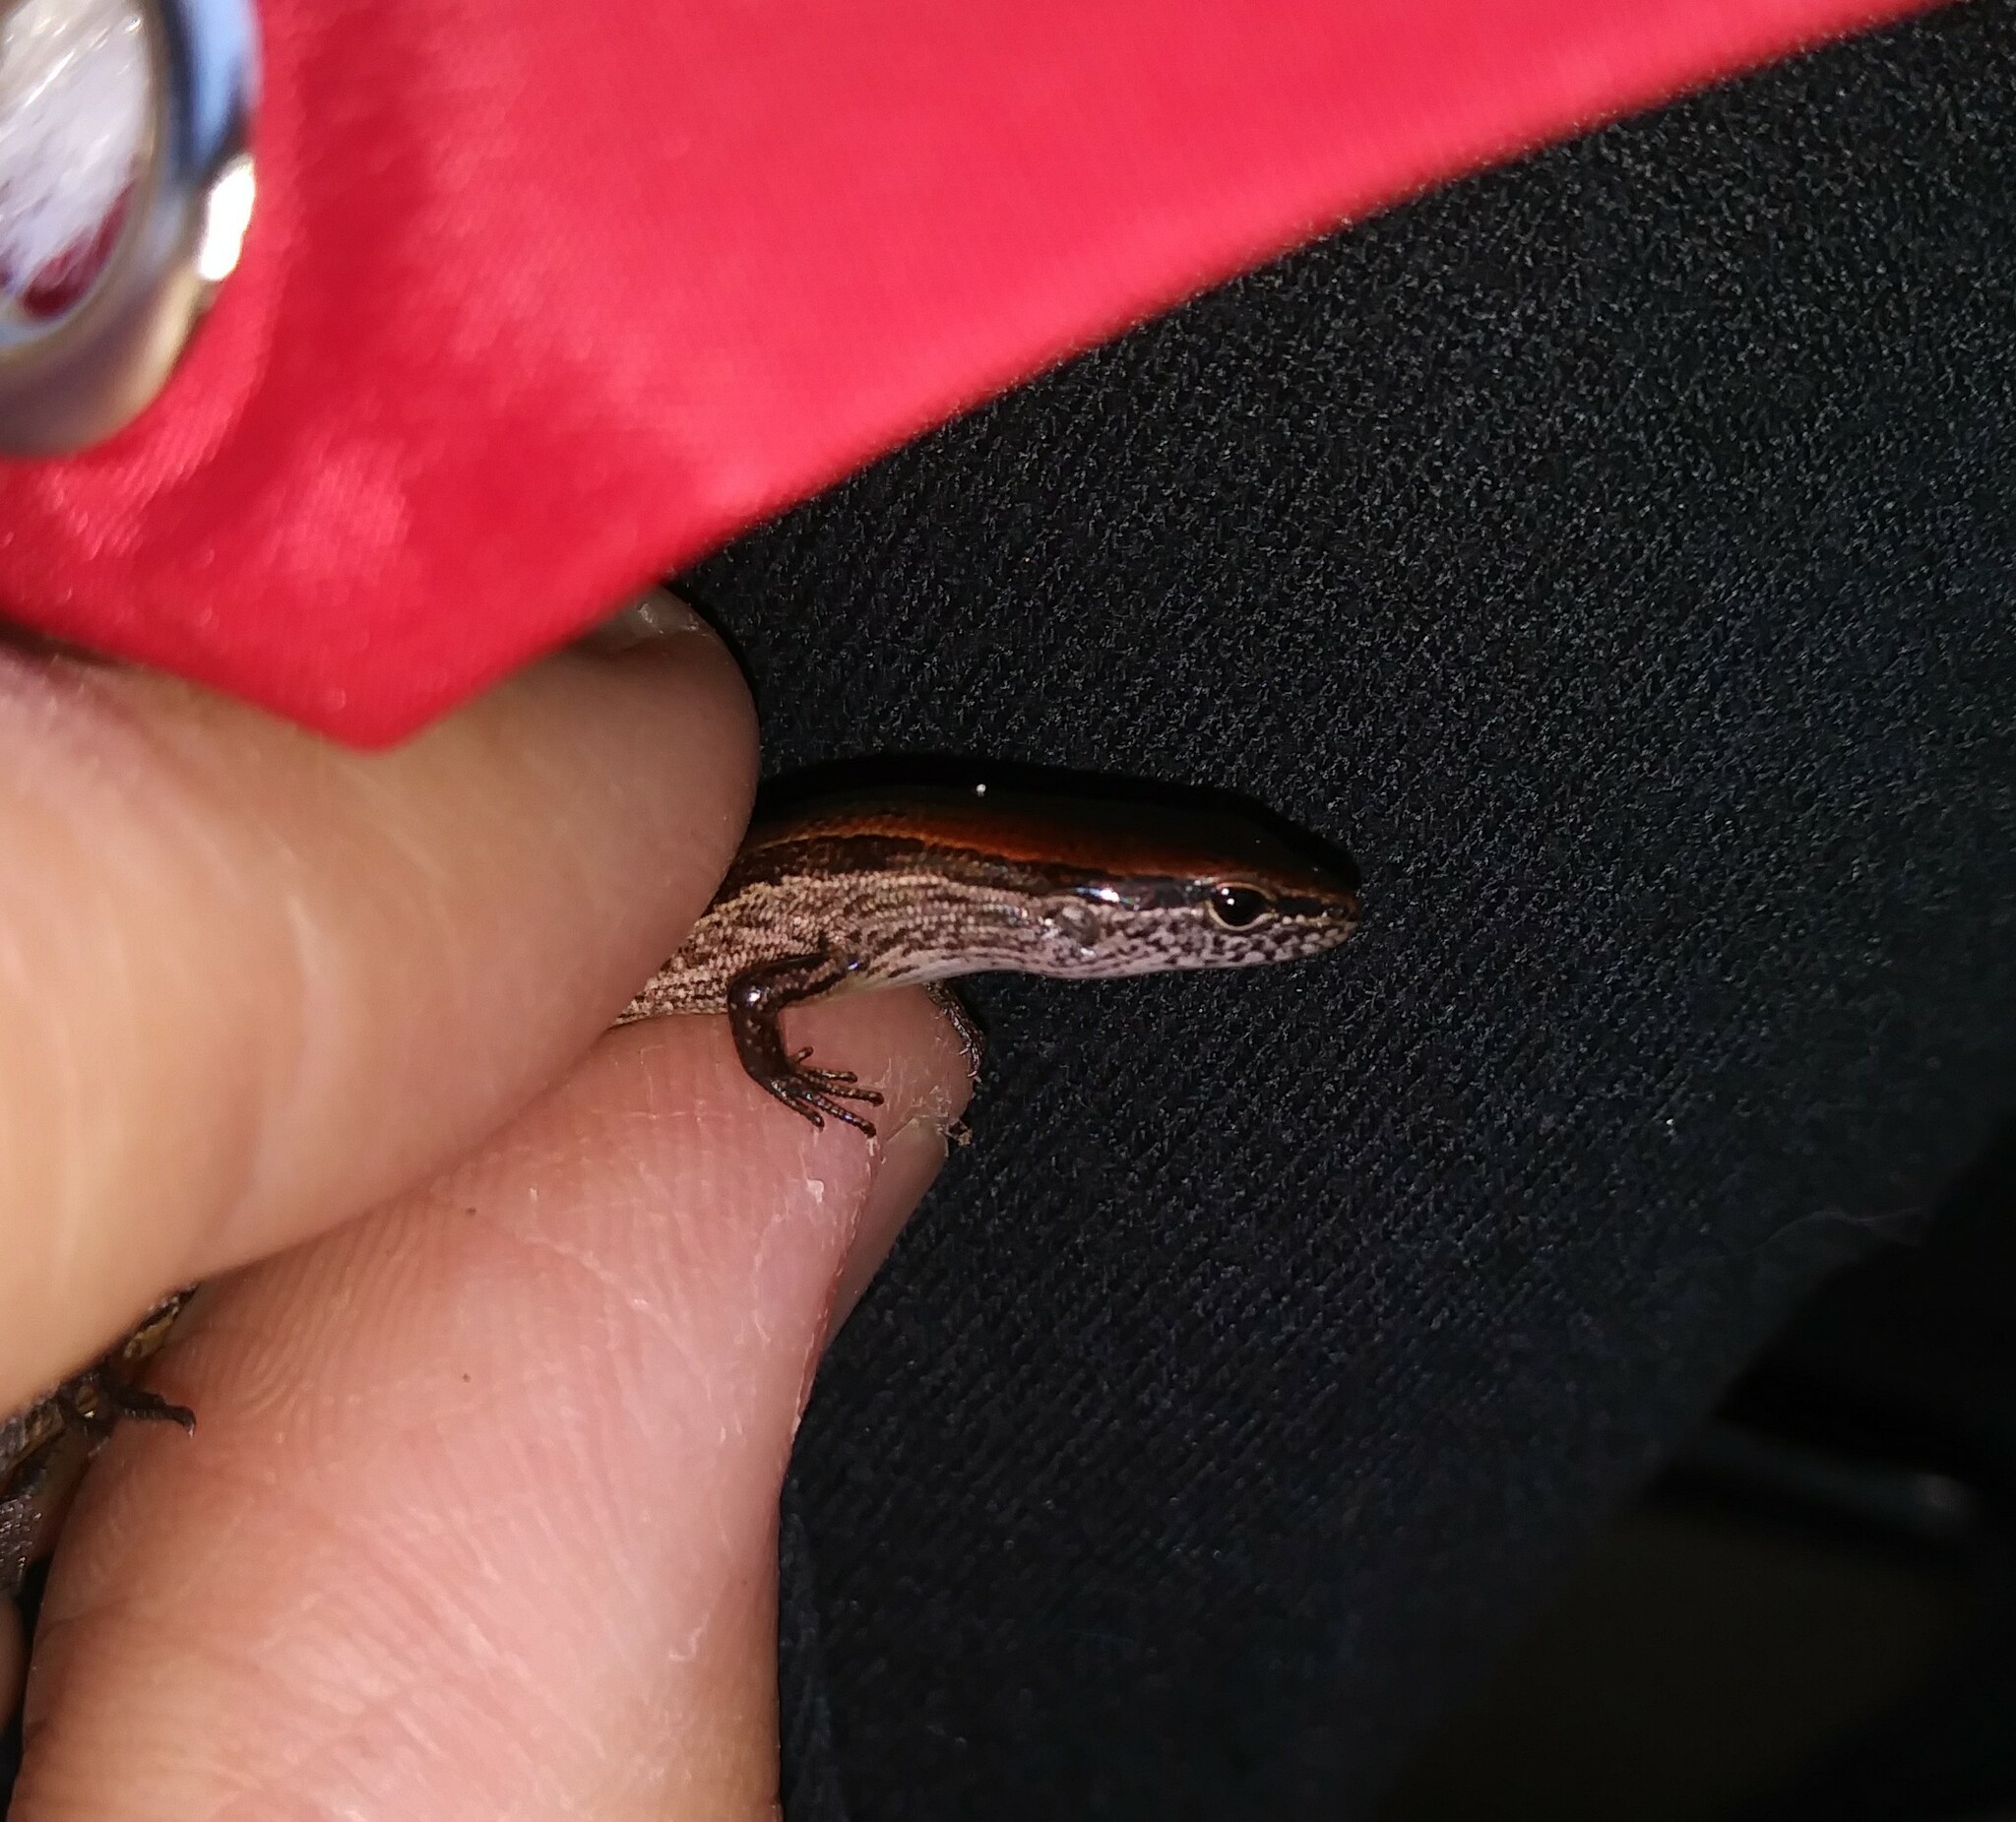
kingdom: Animalia
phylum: Chordata
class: Squamata
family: Scincidae
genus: Scincella
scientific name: Scincella lateralis
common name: Ground skink
